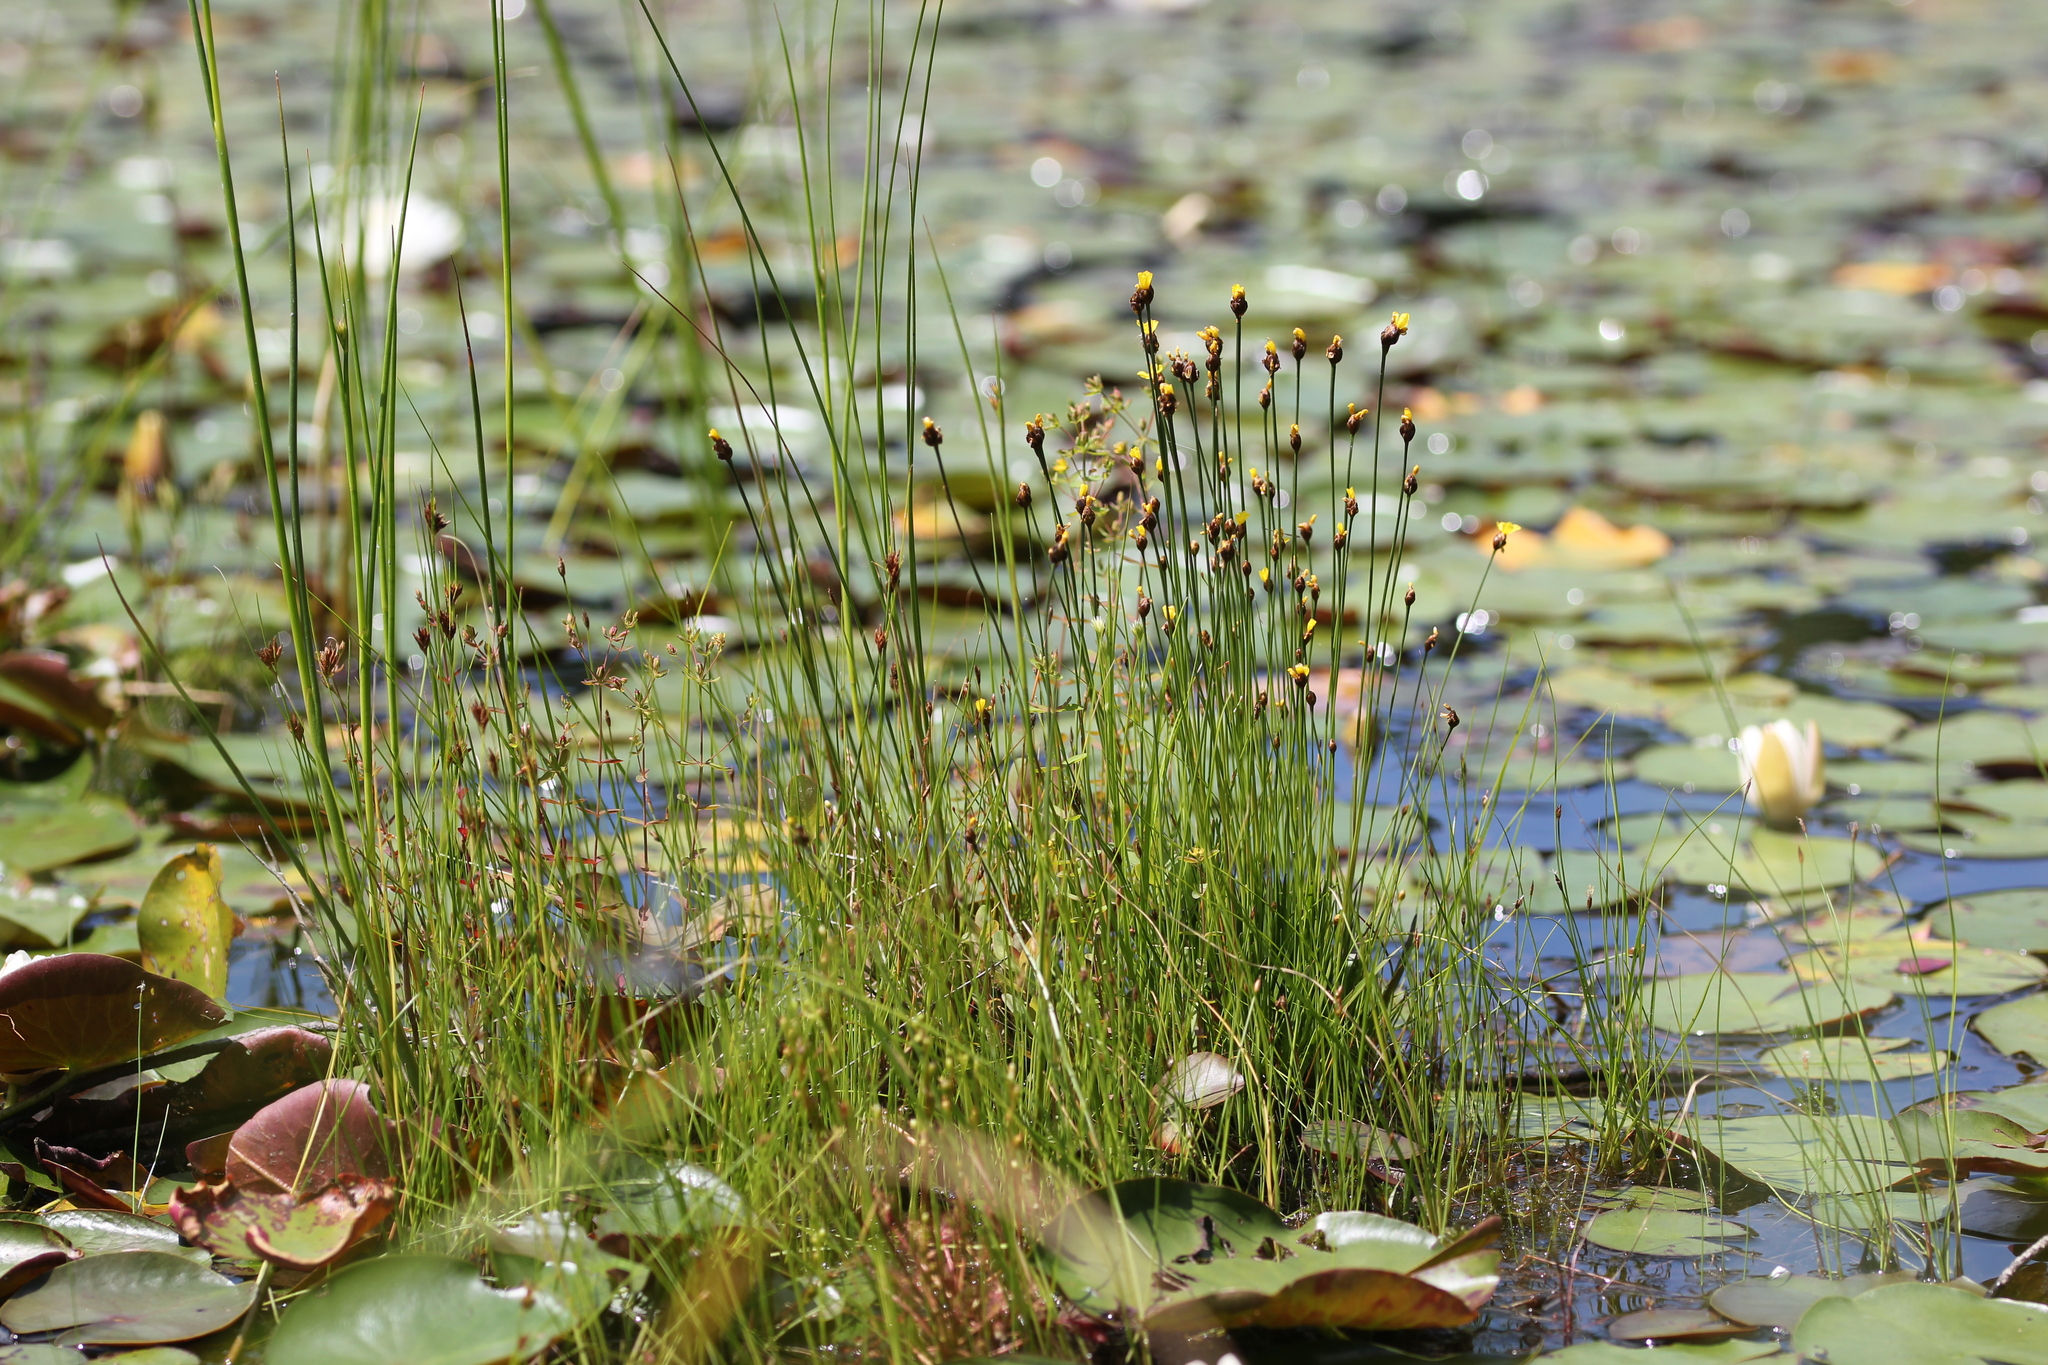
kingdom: Plantae
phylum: Tracheophyta
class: Liliopsida
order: Poales
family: Xyridaceae
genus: Xyris
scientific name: Xyris montana
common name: Northern yellow-eyed-grass
